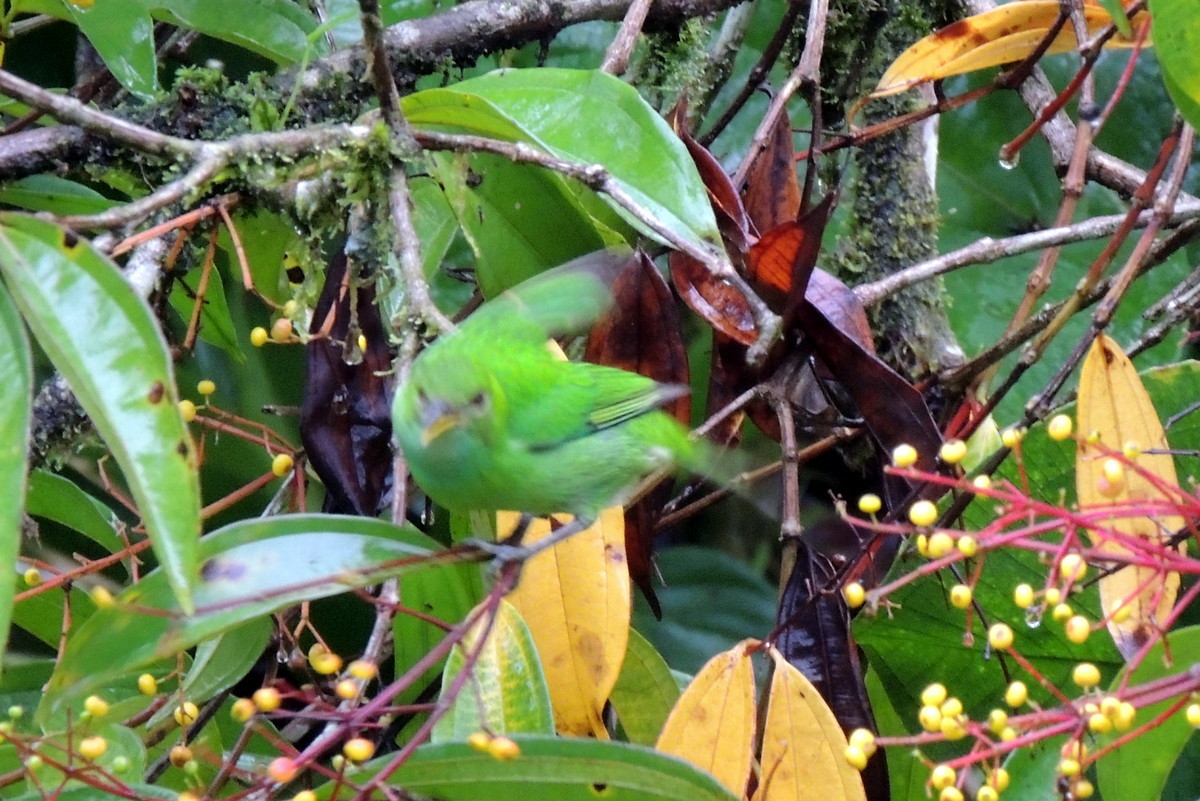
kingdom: Animalia
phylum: Chordata
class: Aves
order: Passeriformes
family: Thraupidae
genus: Chlorophanes
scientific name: Chlorophanes spiza
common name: Green honeycreeper
